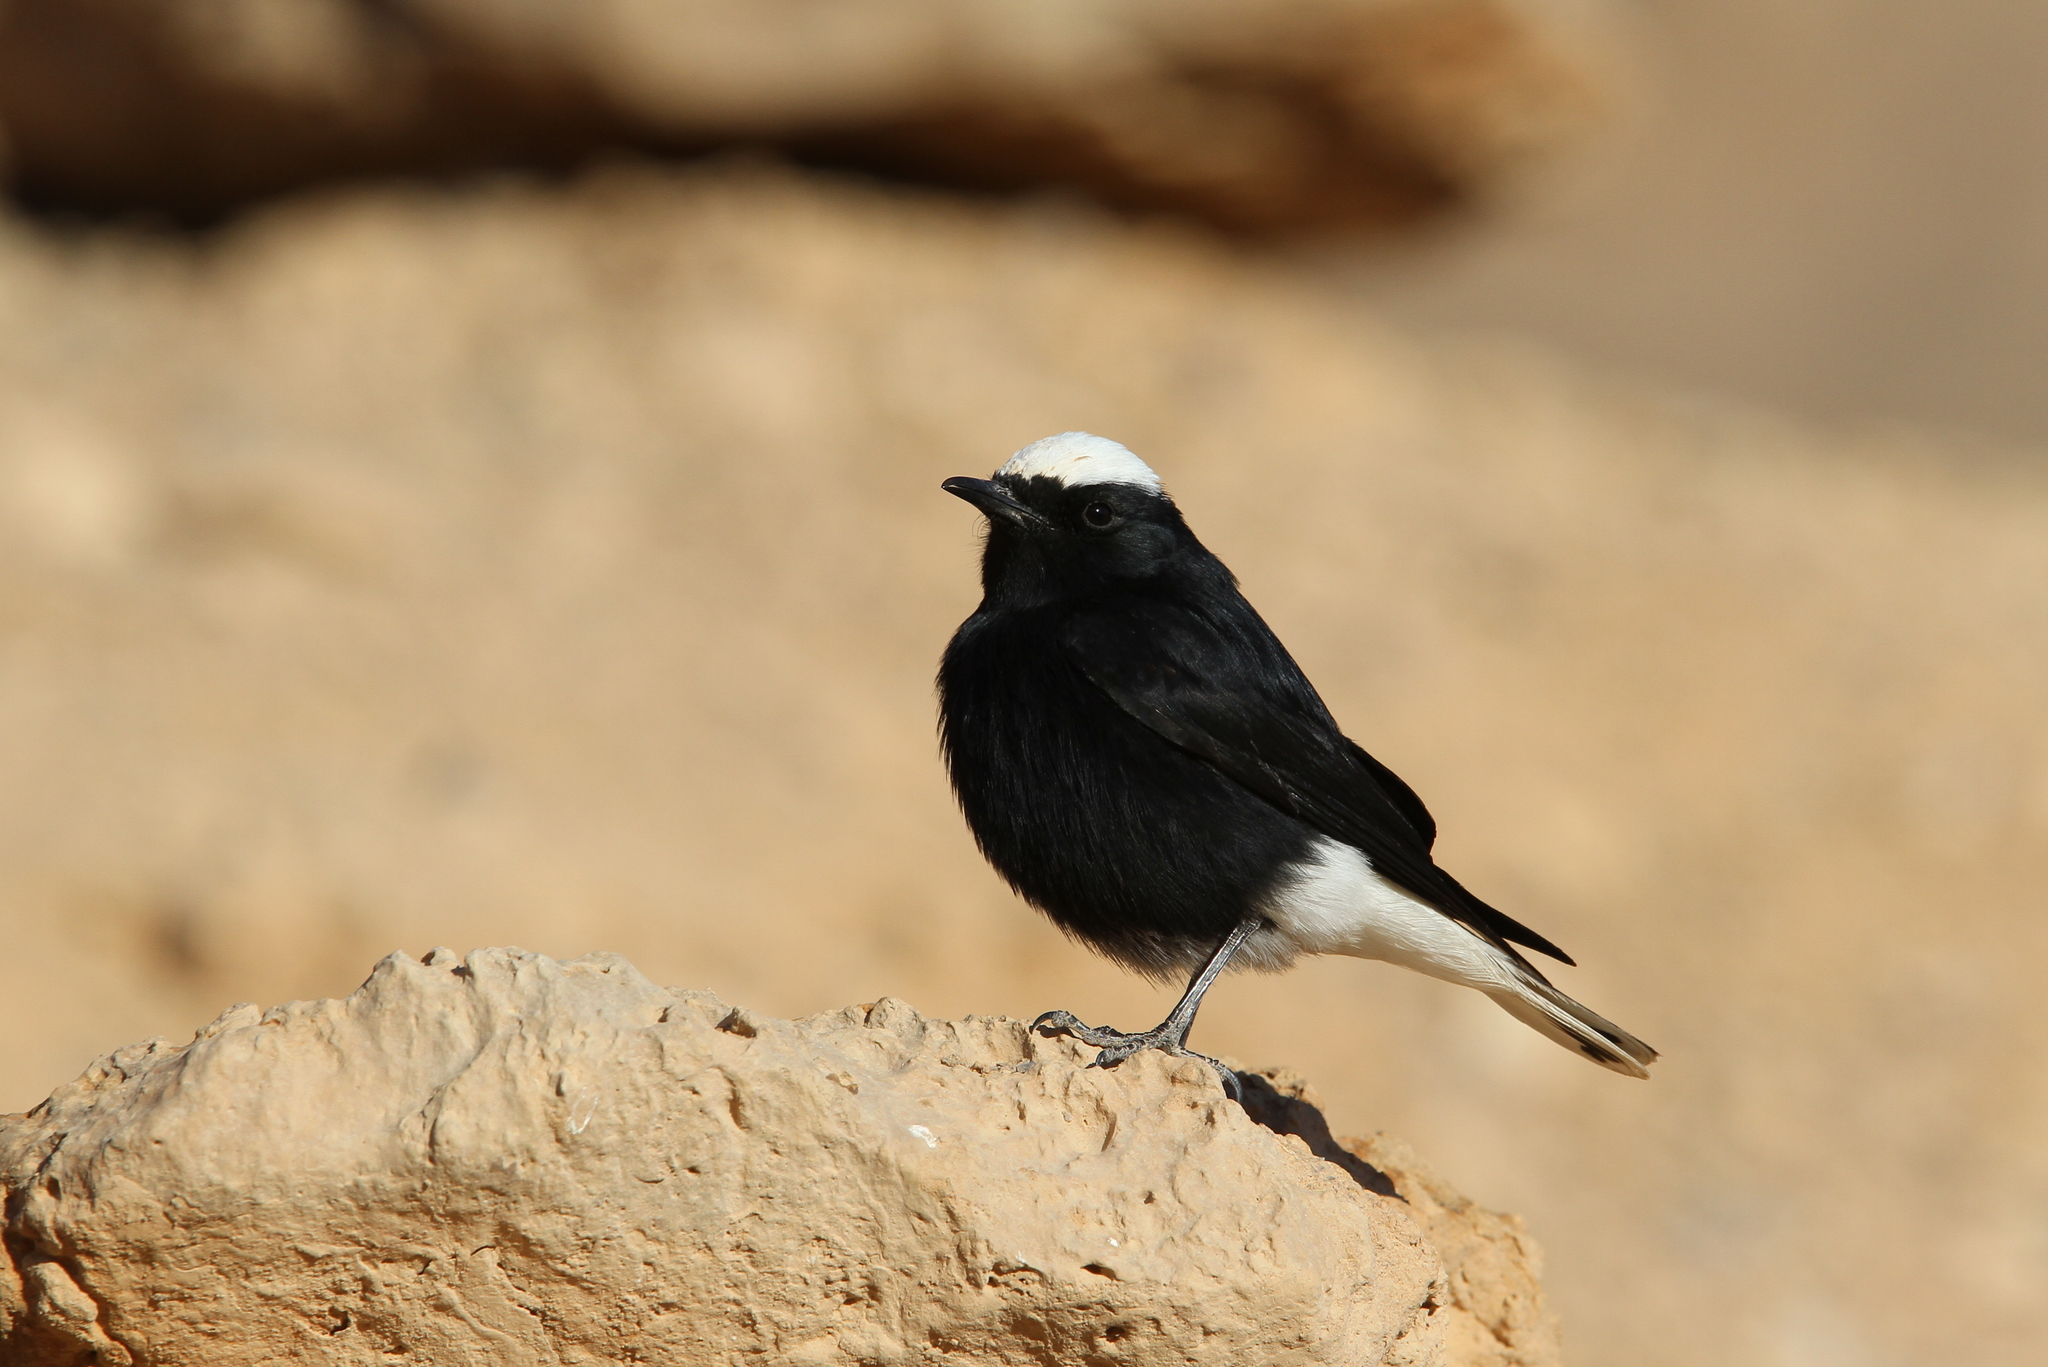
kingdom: Animalia
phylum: Chordata
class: Aves
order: Passeriformes
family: Muscicapidae
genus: Oenanthe
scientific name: Oenanthe leucopyga
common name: White-crowned wheatear
